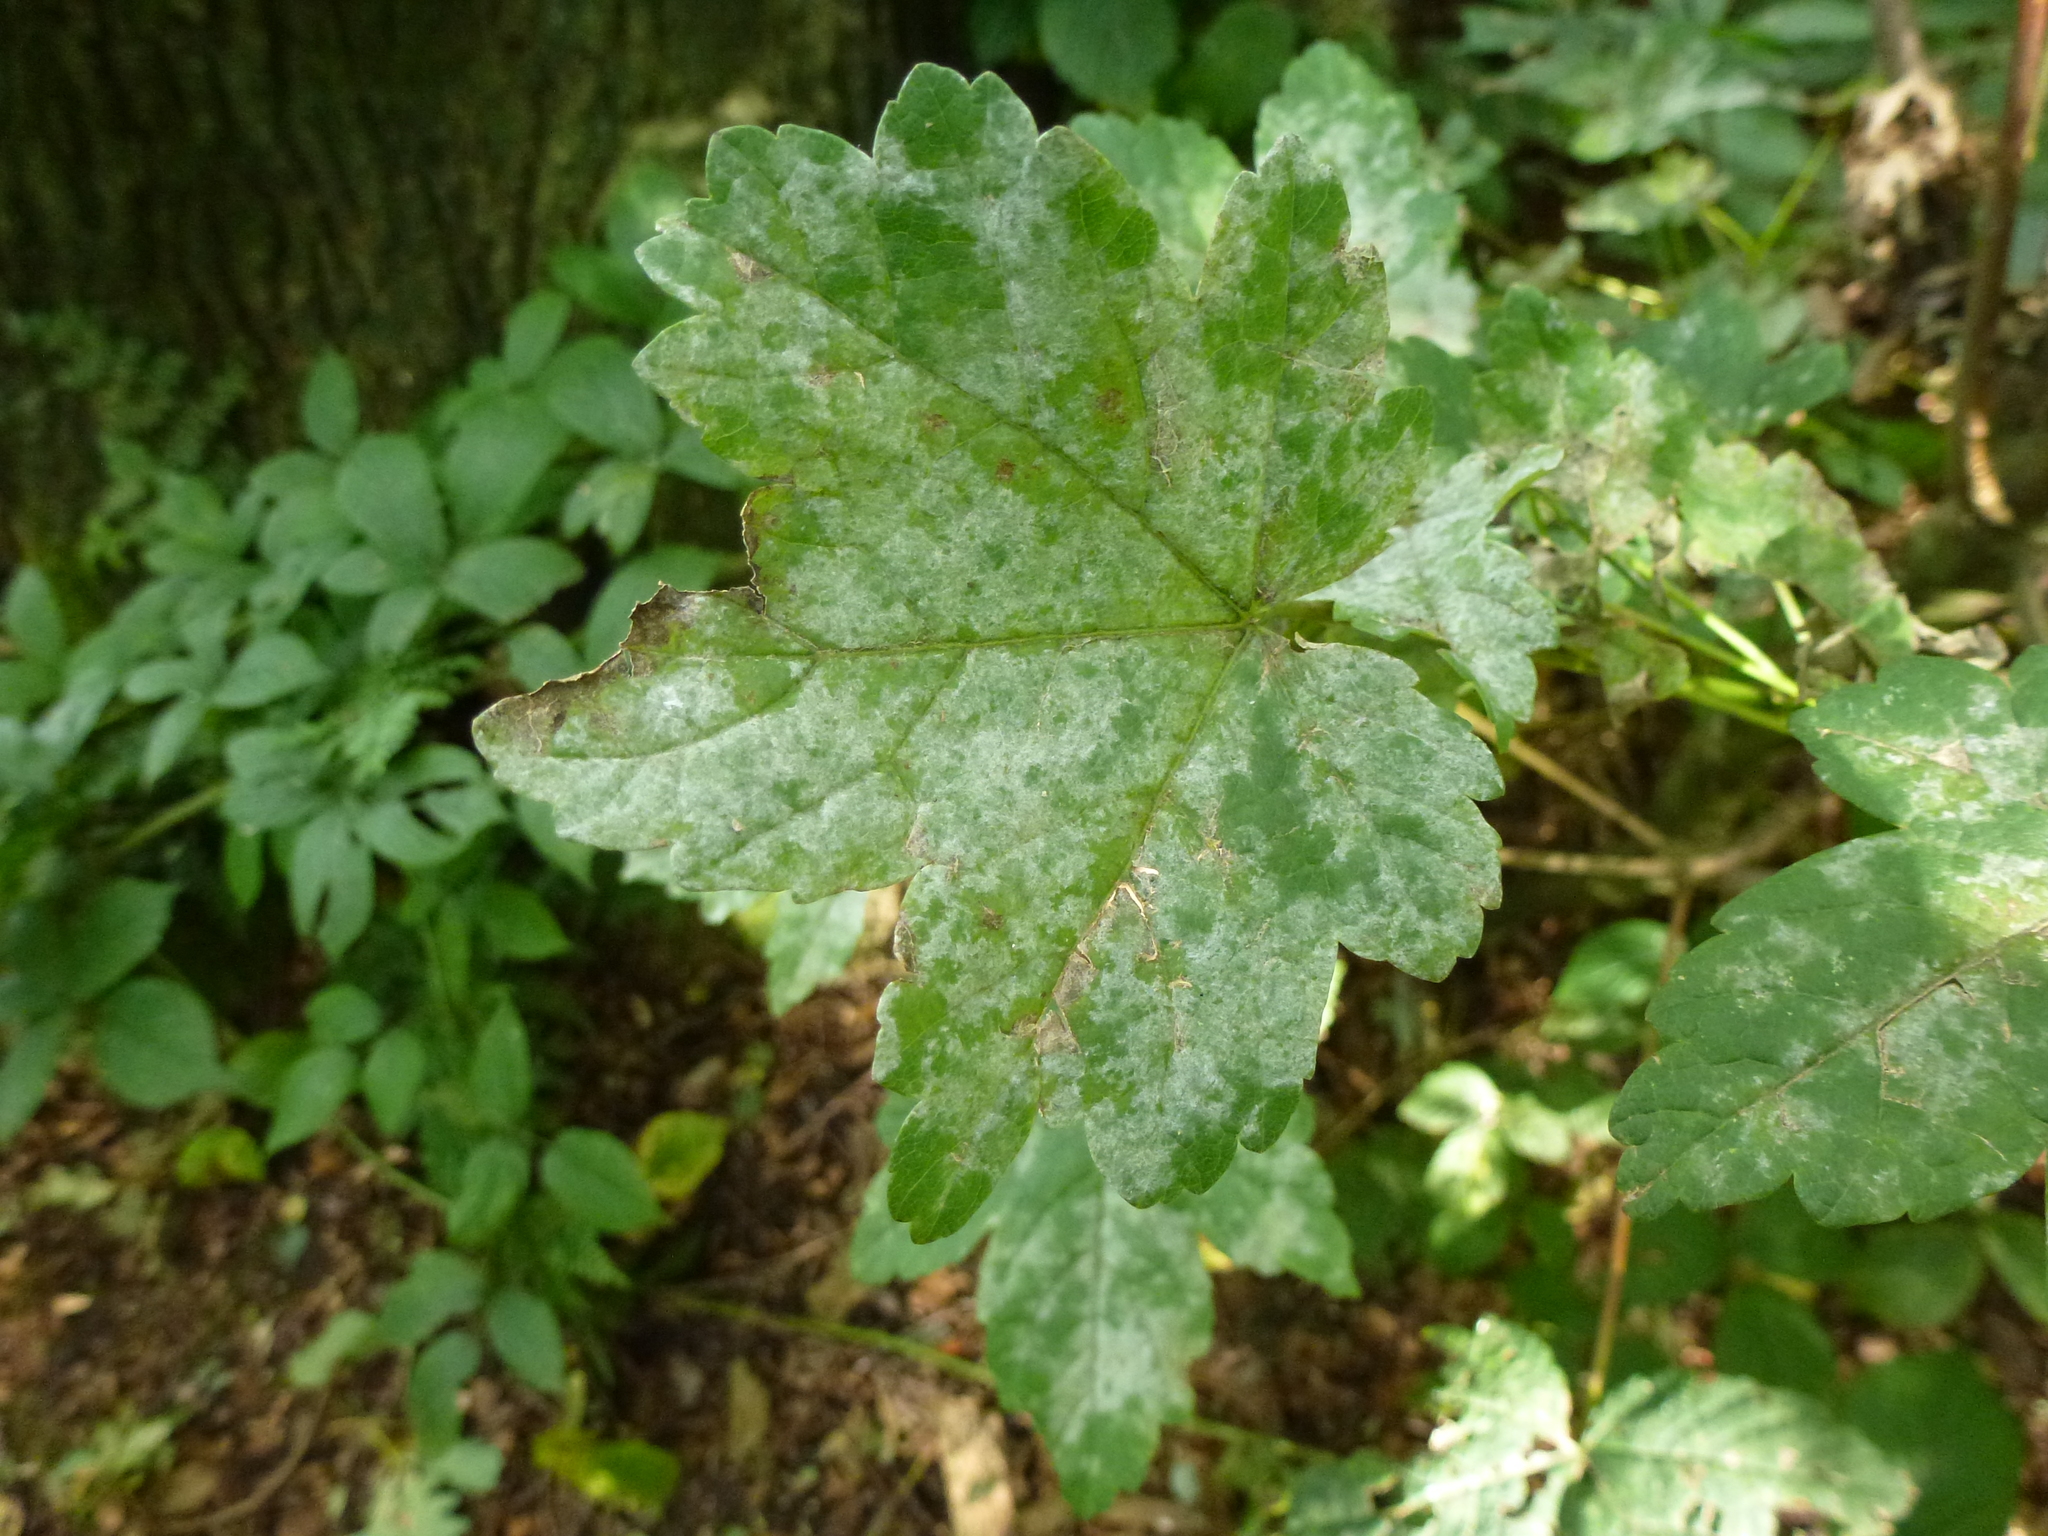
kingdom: Fungi
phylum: Ascomycota
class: Leotiomycetes
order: Helotiales
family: Erysiphaceae
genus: Sawadaea
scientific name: Sawadaea bicornis
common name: Maple mildew
